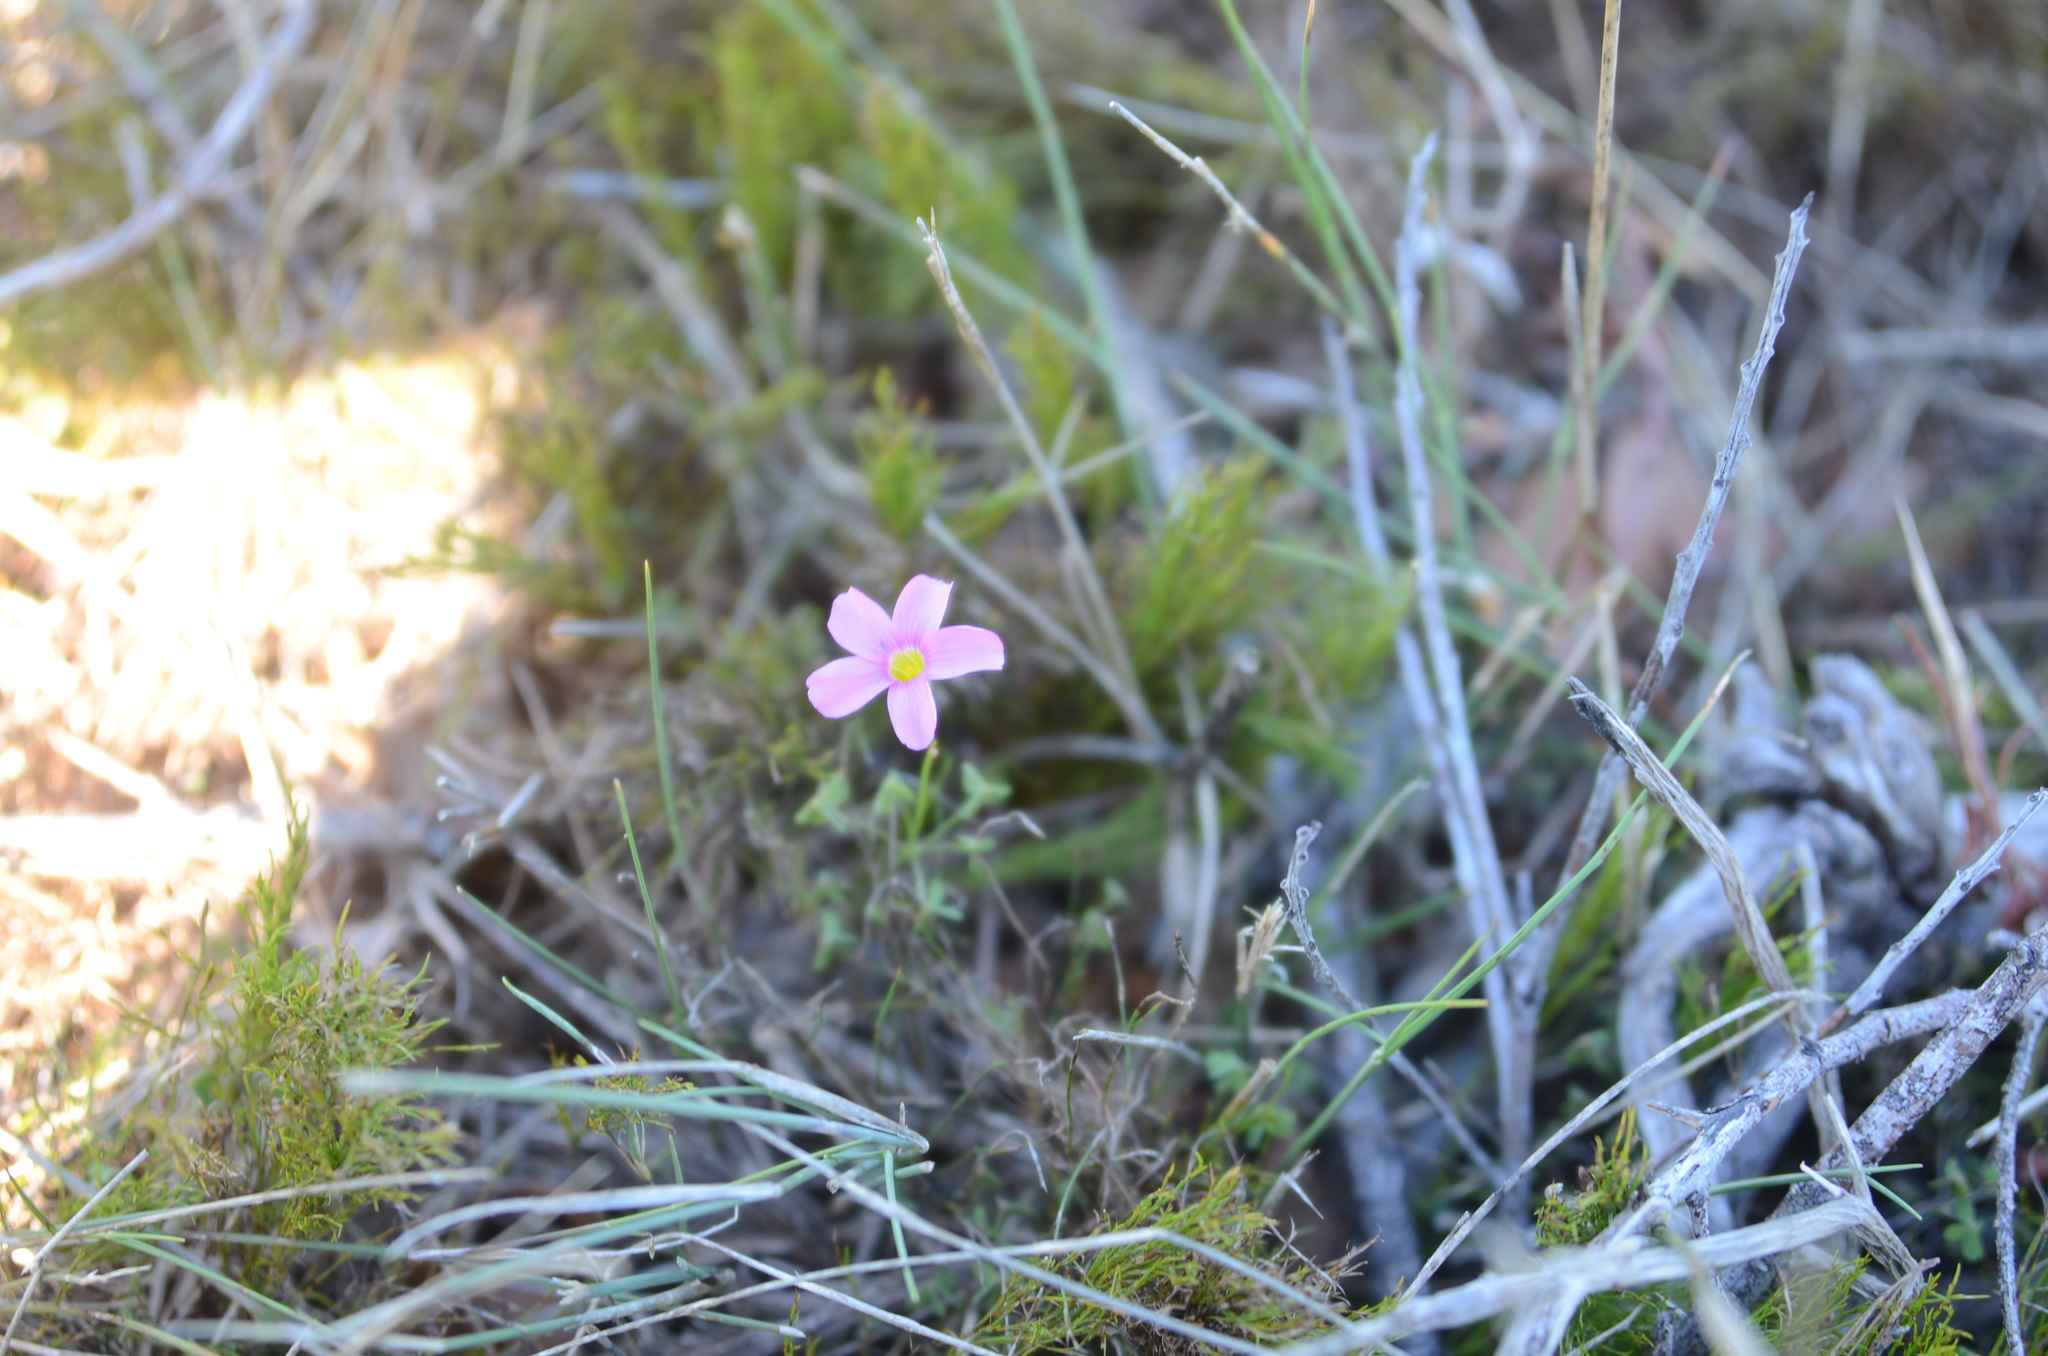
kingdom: Plantae
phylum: Tracheophyta
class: Magnoliopsida
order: Oxalidales
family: Oxalidaceae
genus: Oxalis
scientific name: Oxalis stellata
